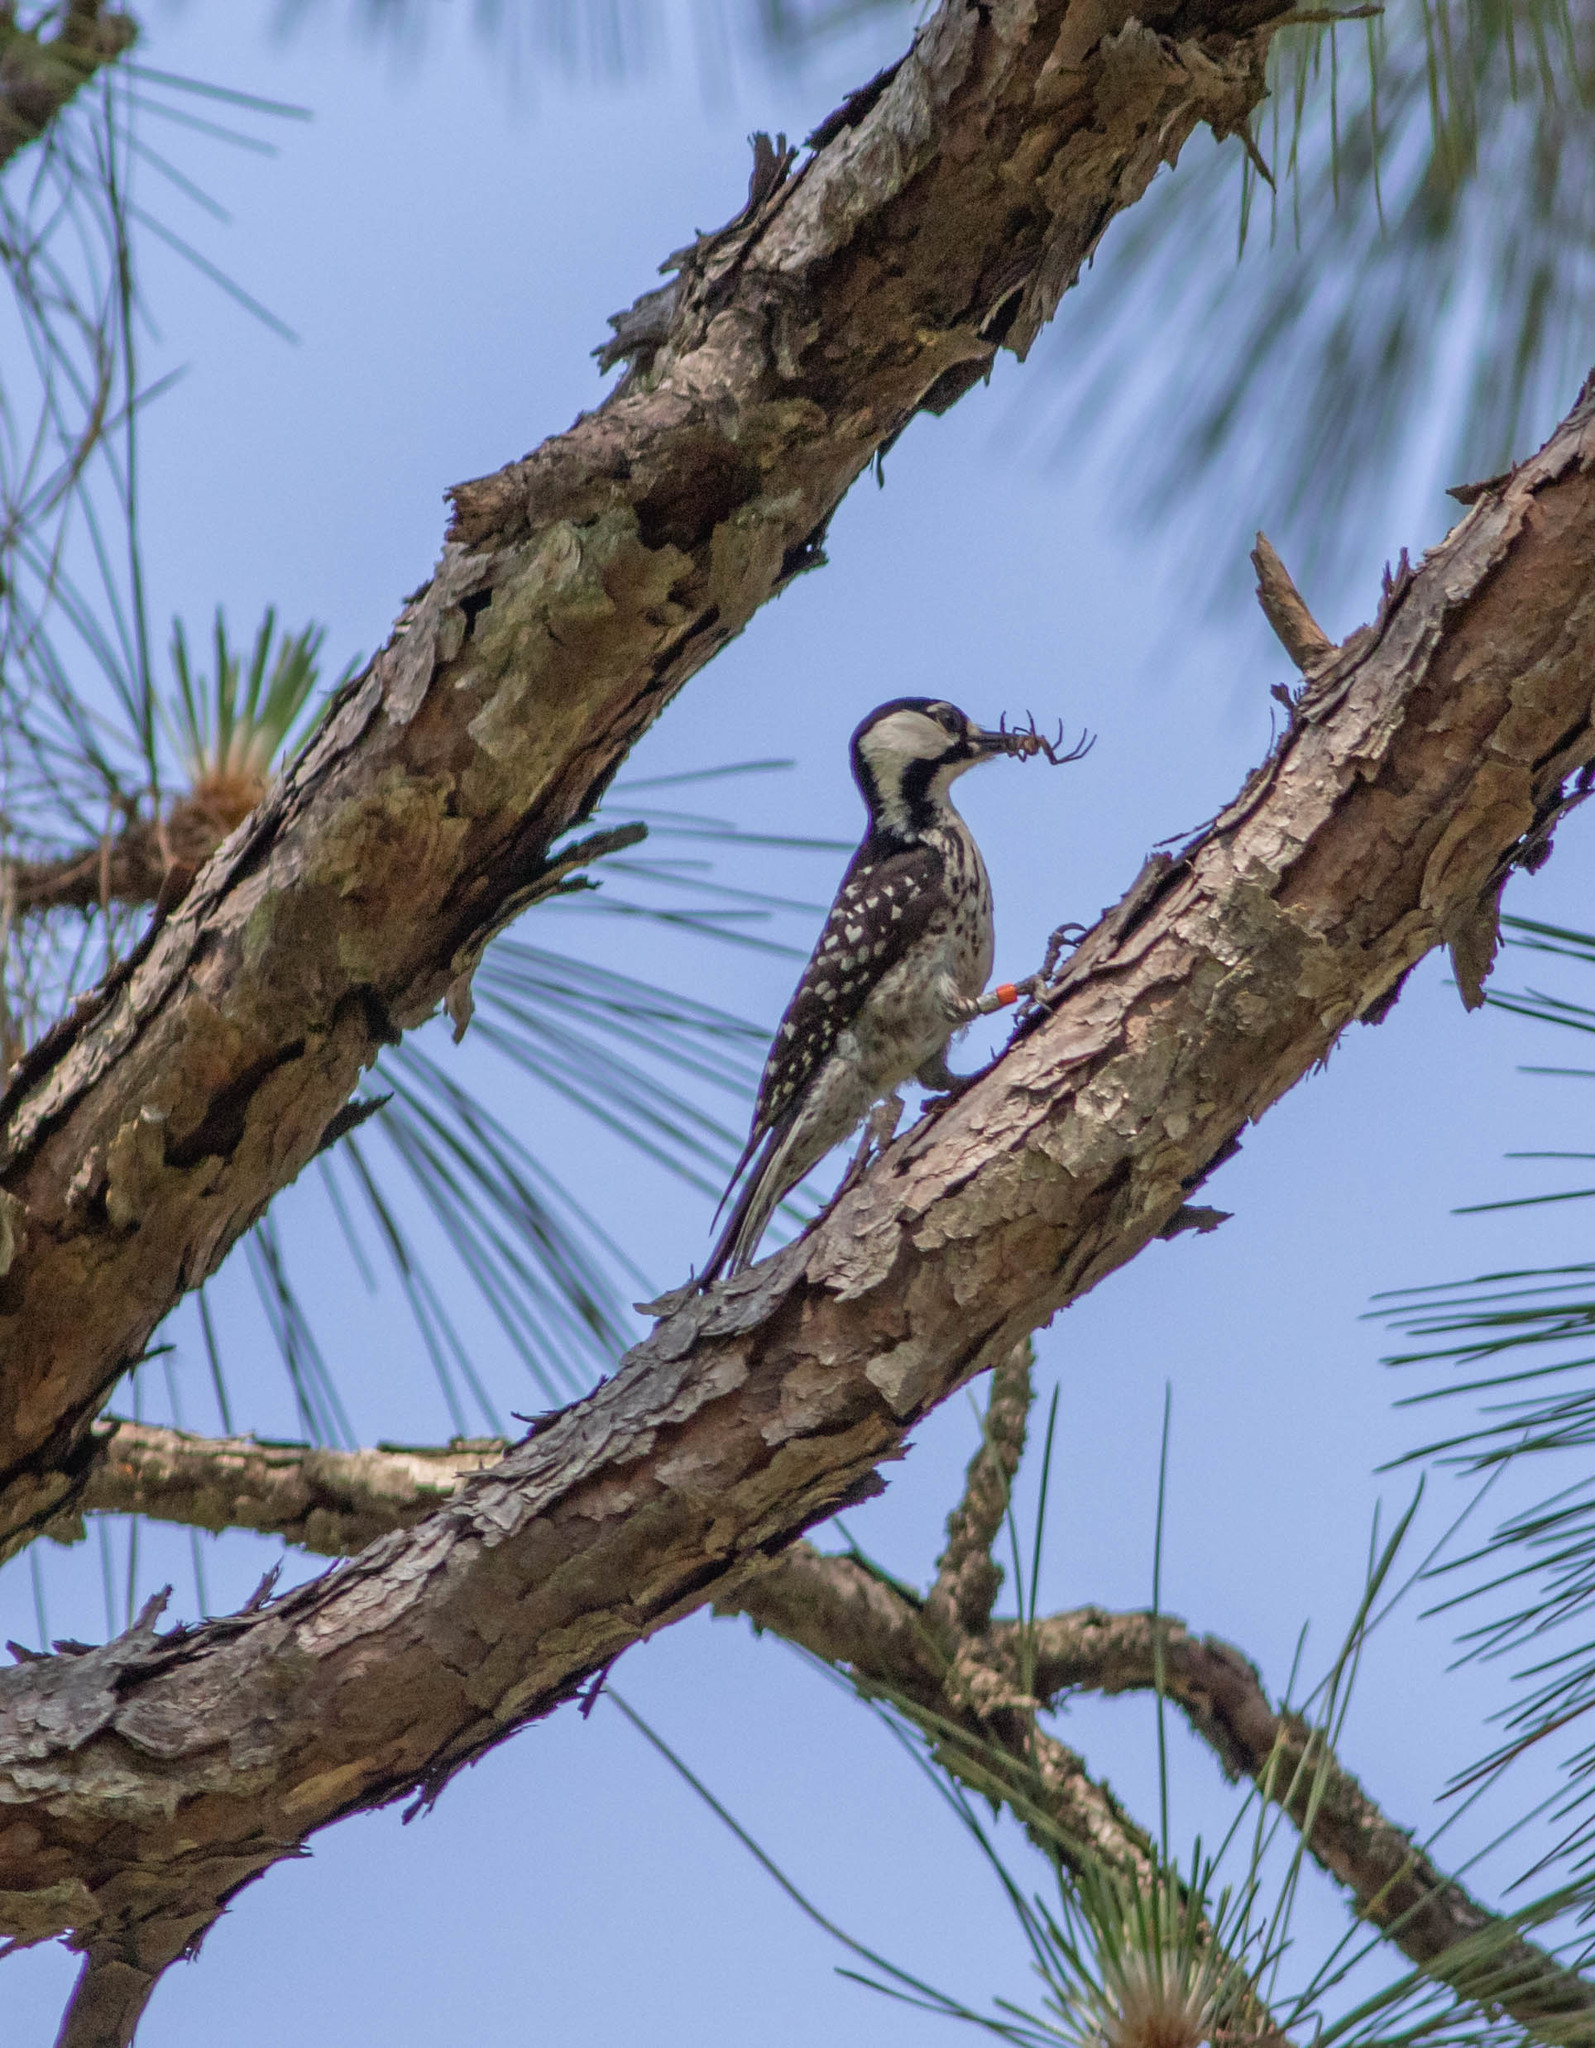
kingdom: Animalia
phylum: Chordata
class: Aves
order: Piciformes
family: Picidae
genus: Leuconotopicus
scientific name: Leuconotopicus borealis
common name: Red-cockaded woodpecker
